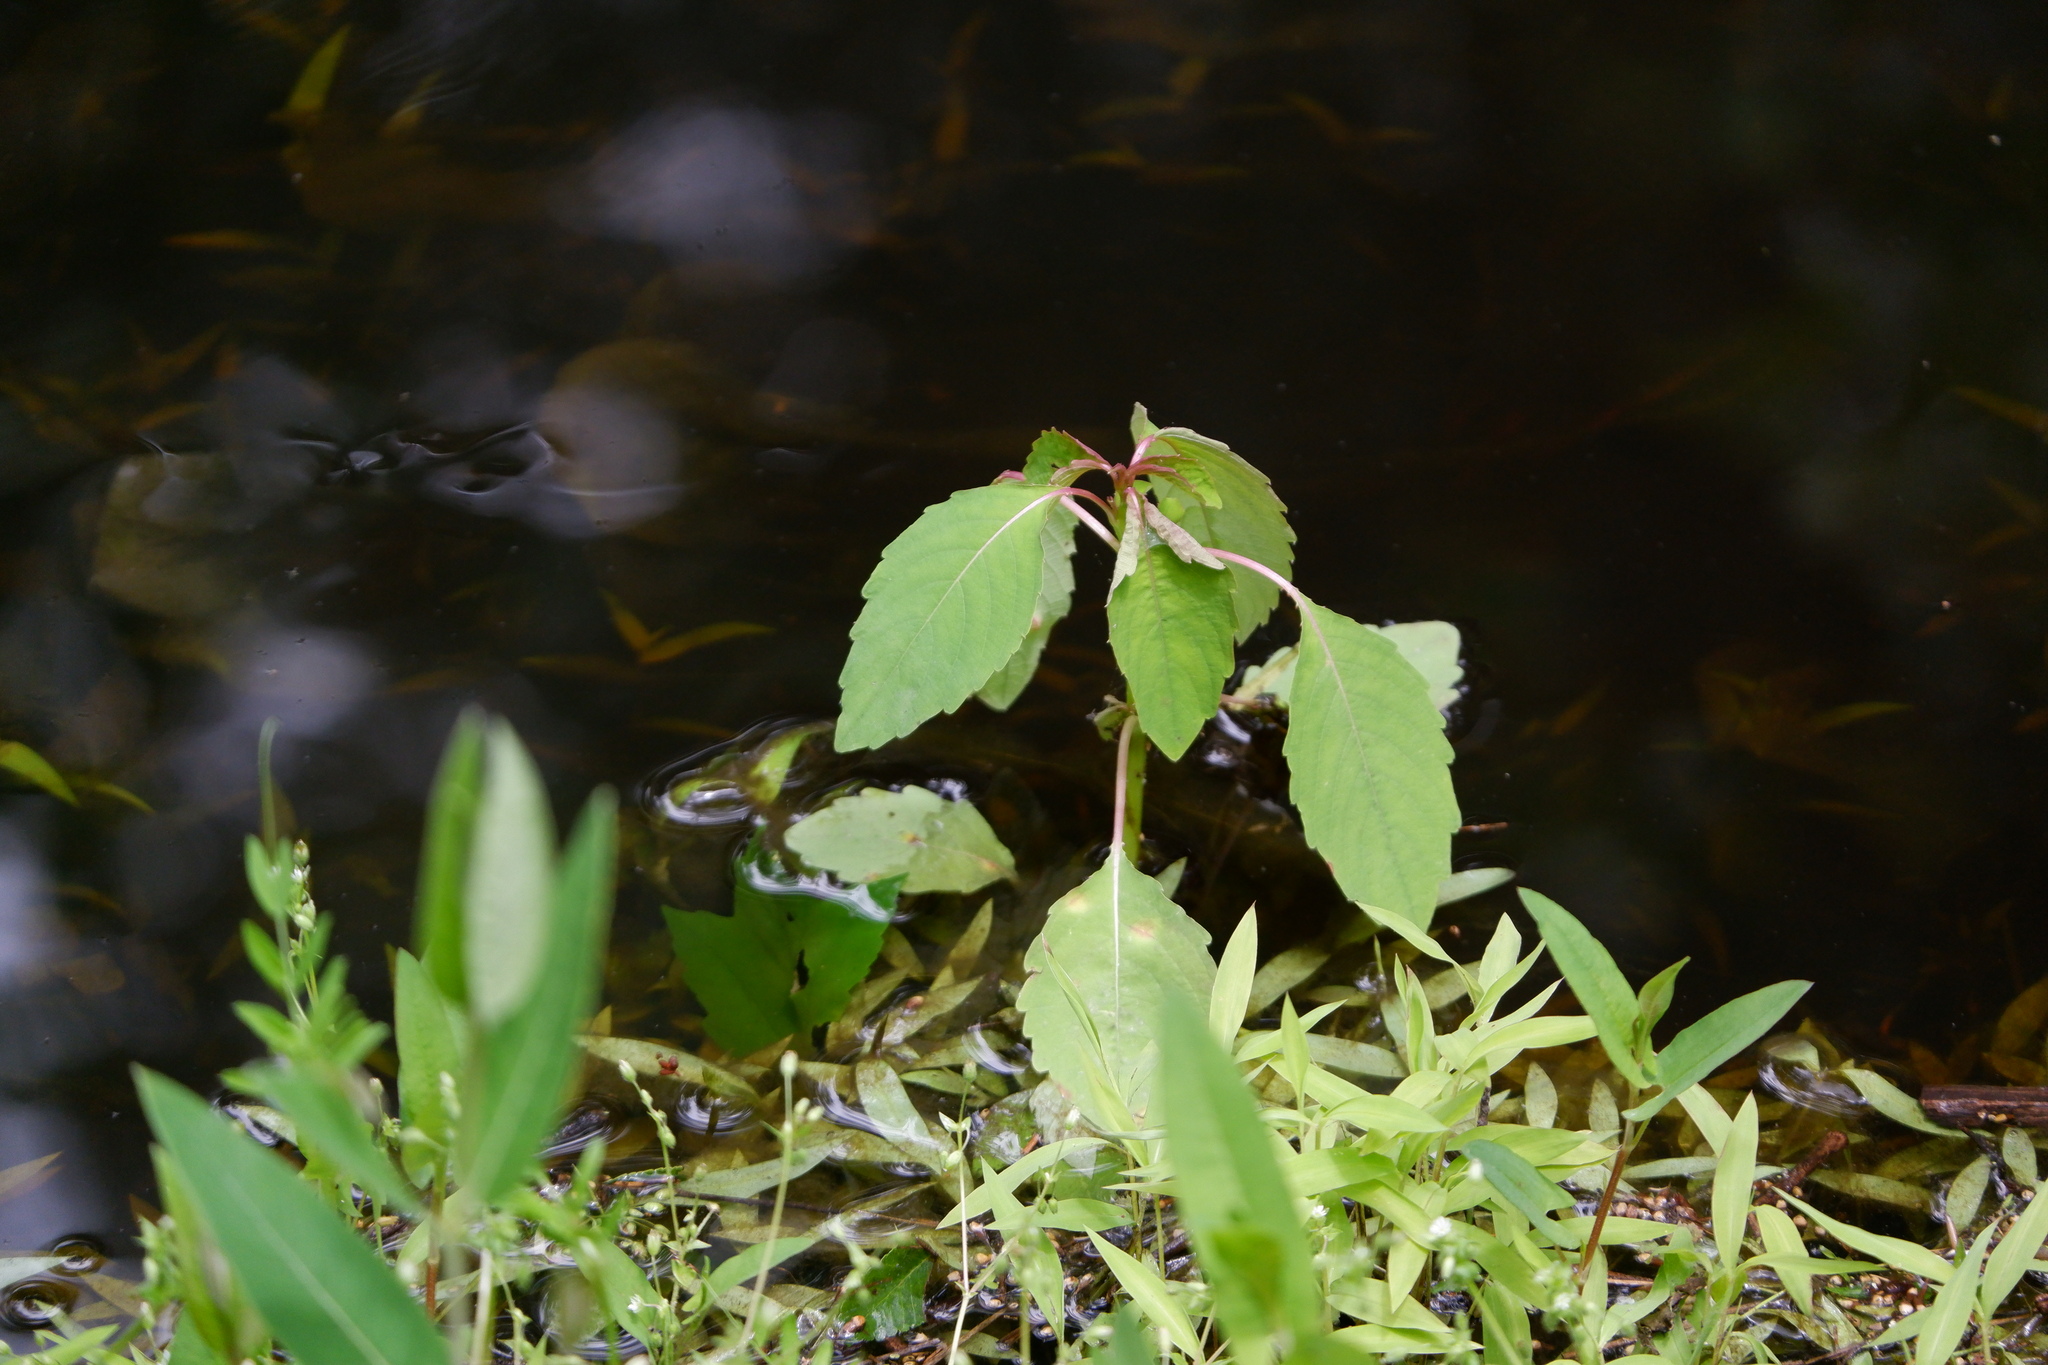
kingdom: Plantae
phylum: Tracheophyta
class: Magnoliopsida
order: Ericales
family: Balsaminaceae
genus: Impatiens
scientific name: Impatiens capensis
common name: Orange balsam
